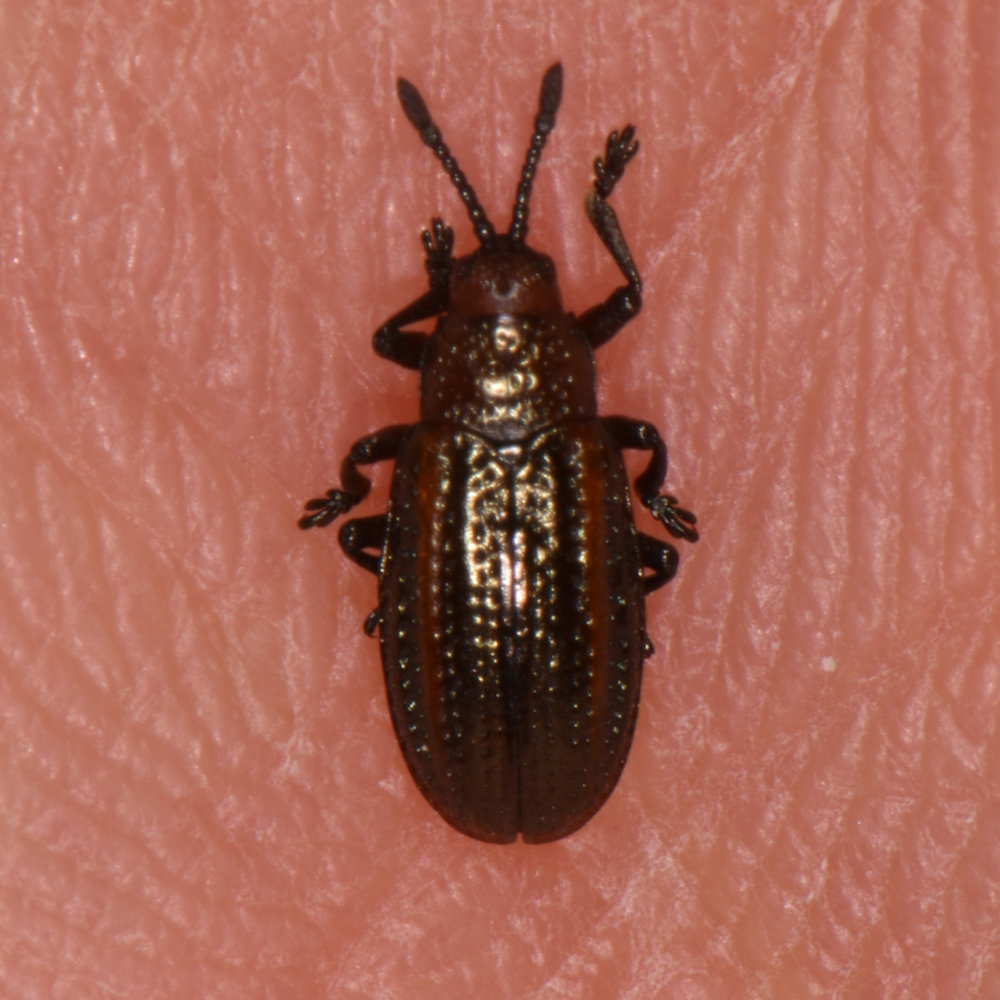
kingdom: Animalia
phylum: Arthropoda
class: Insecta
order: Coleoptera
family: Chrysomelidae
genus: Microrhopala
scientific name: Microrhopala vittata
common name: Goldenrod leaf miner beetle
